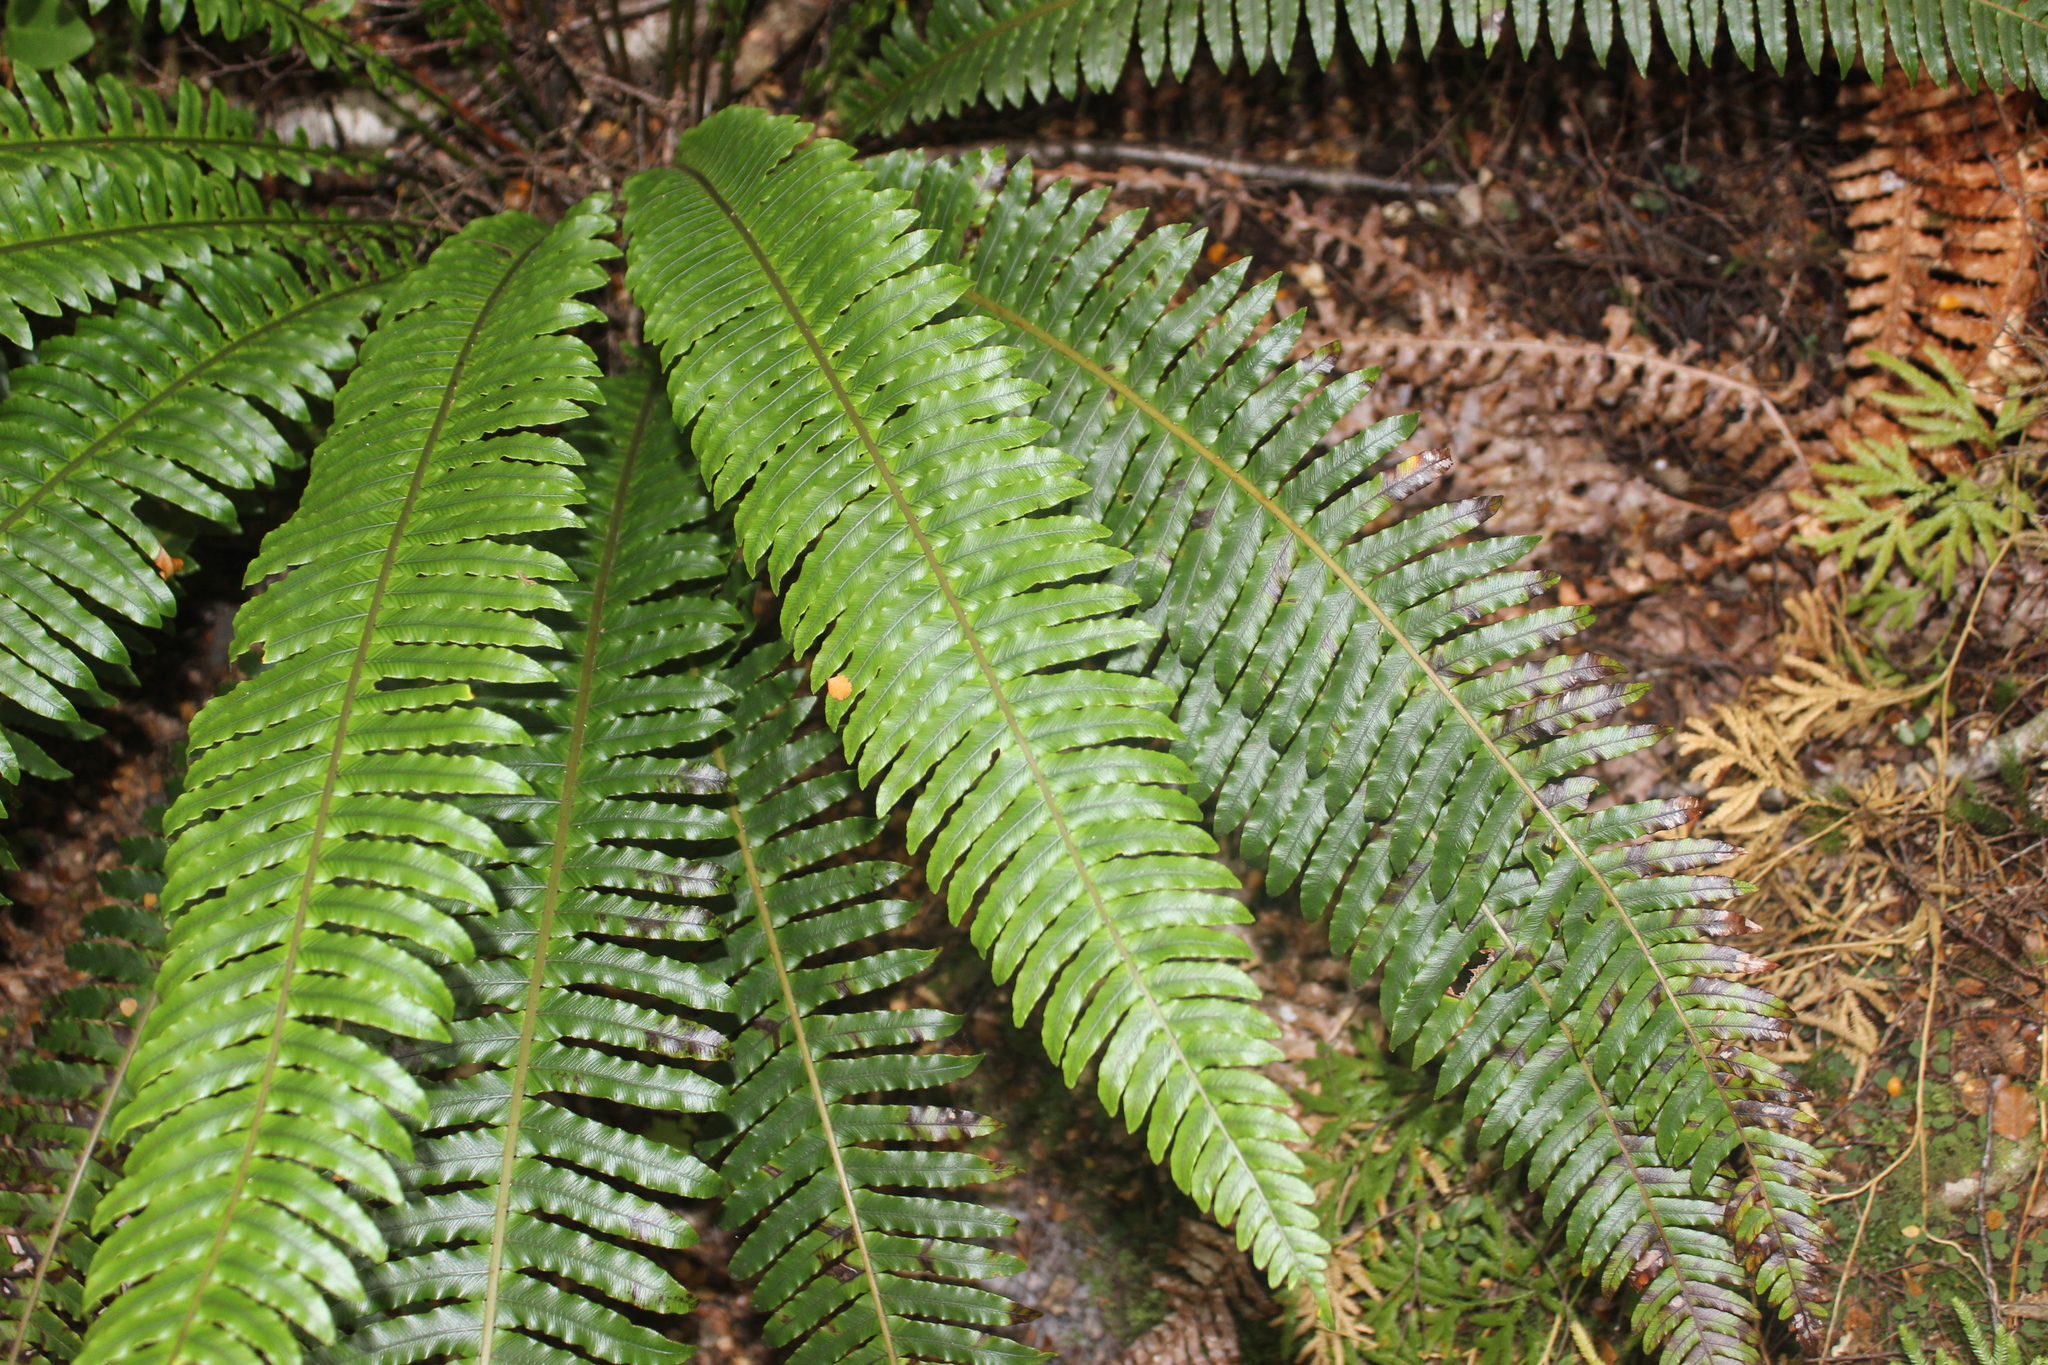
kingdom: Plantae
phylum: Tracheophyta
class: Polypodiopsida
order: Polypodiales
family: Blechnaceae
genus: Lomaria
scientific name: Lomaria discolor
